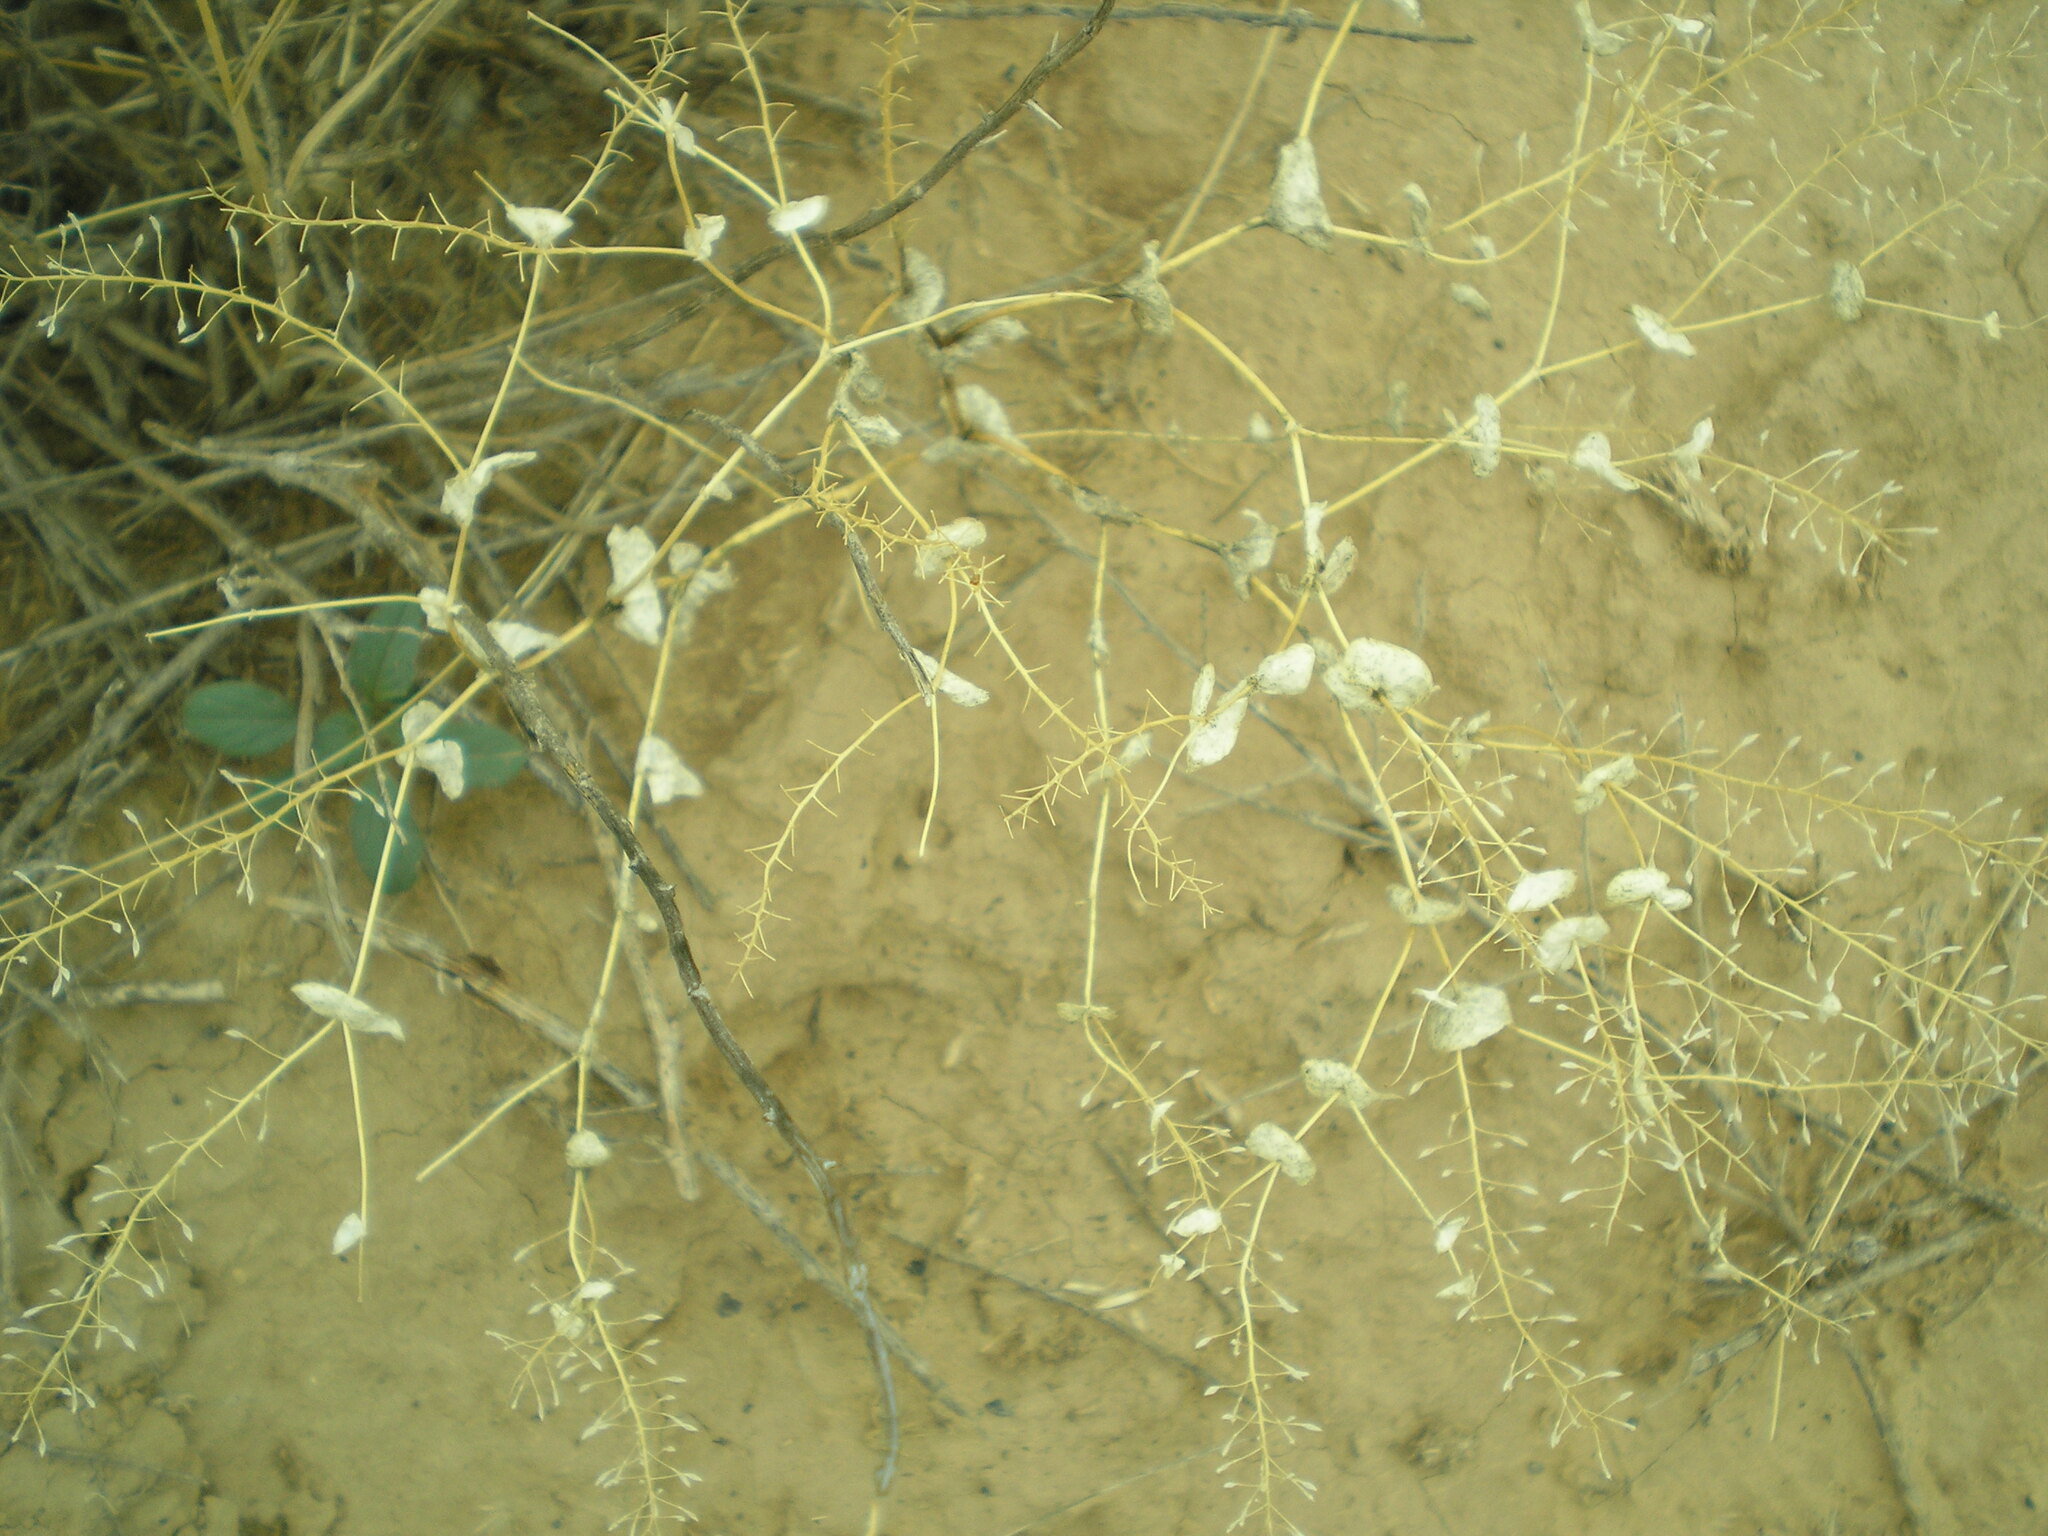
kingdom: Plantae
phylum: Tracheophyta
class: Magnoliopsida
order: Brassicales
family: Brassicaceae
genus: Lepidium
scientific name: Lepidium perfoliatum
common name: Perfoliate pepperwort
